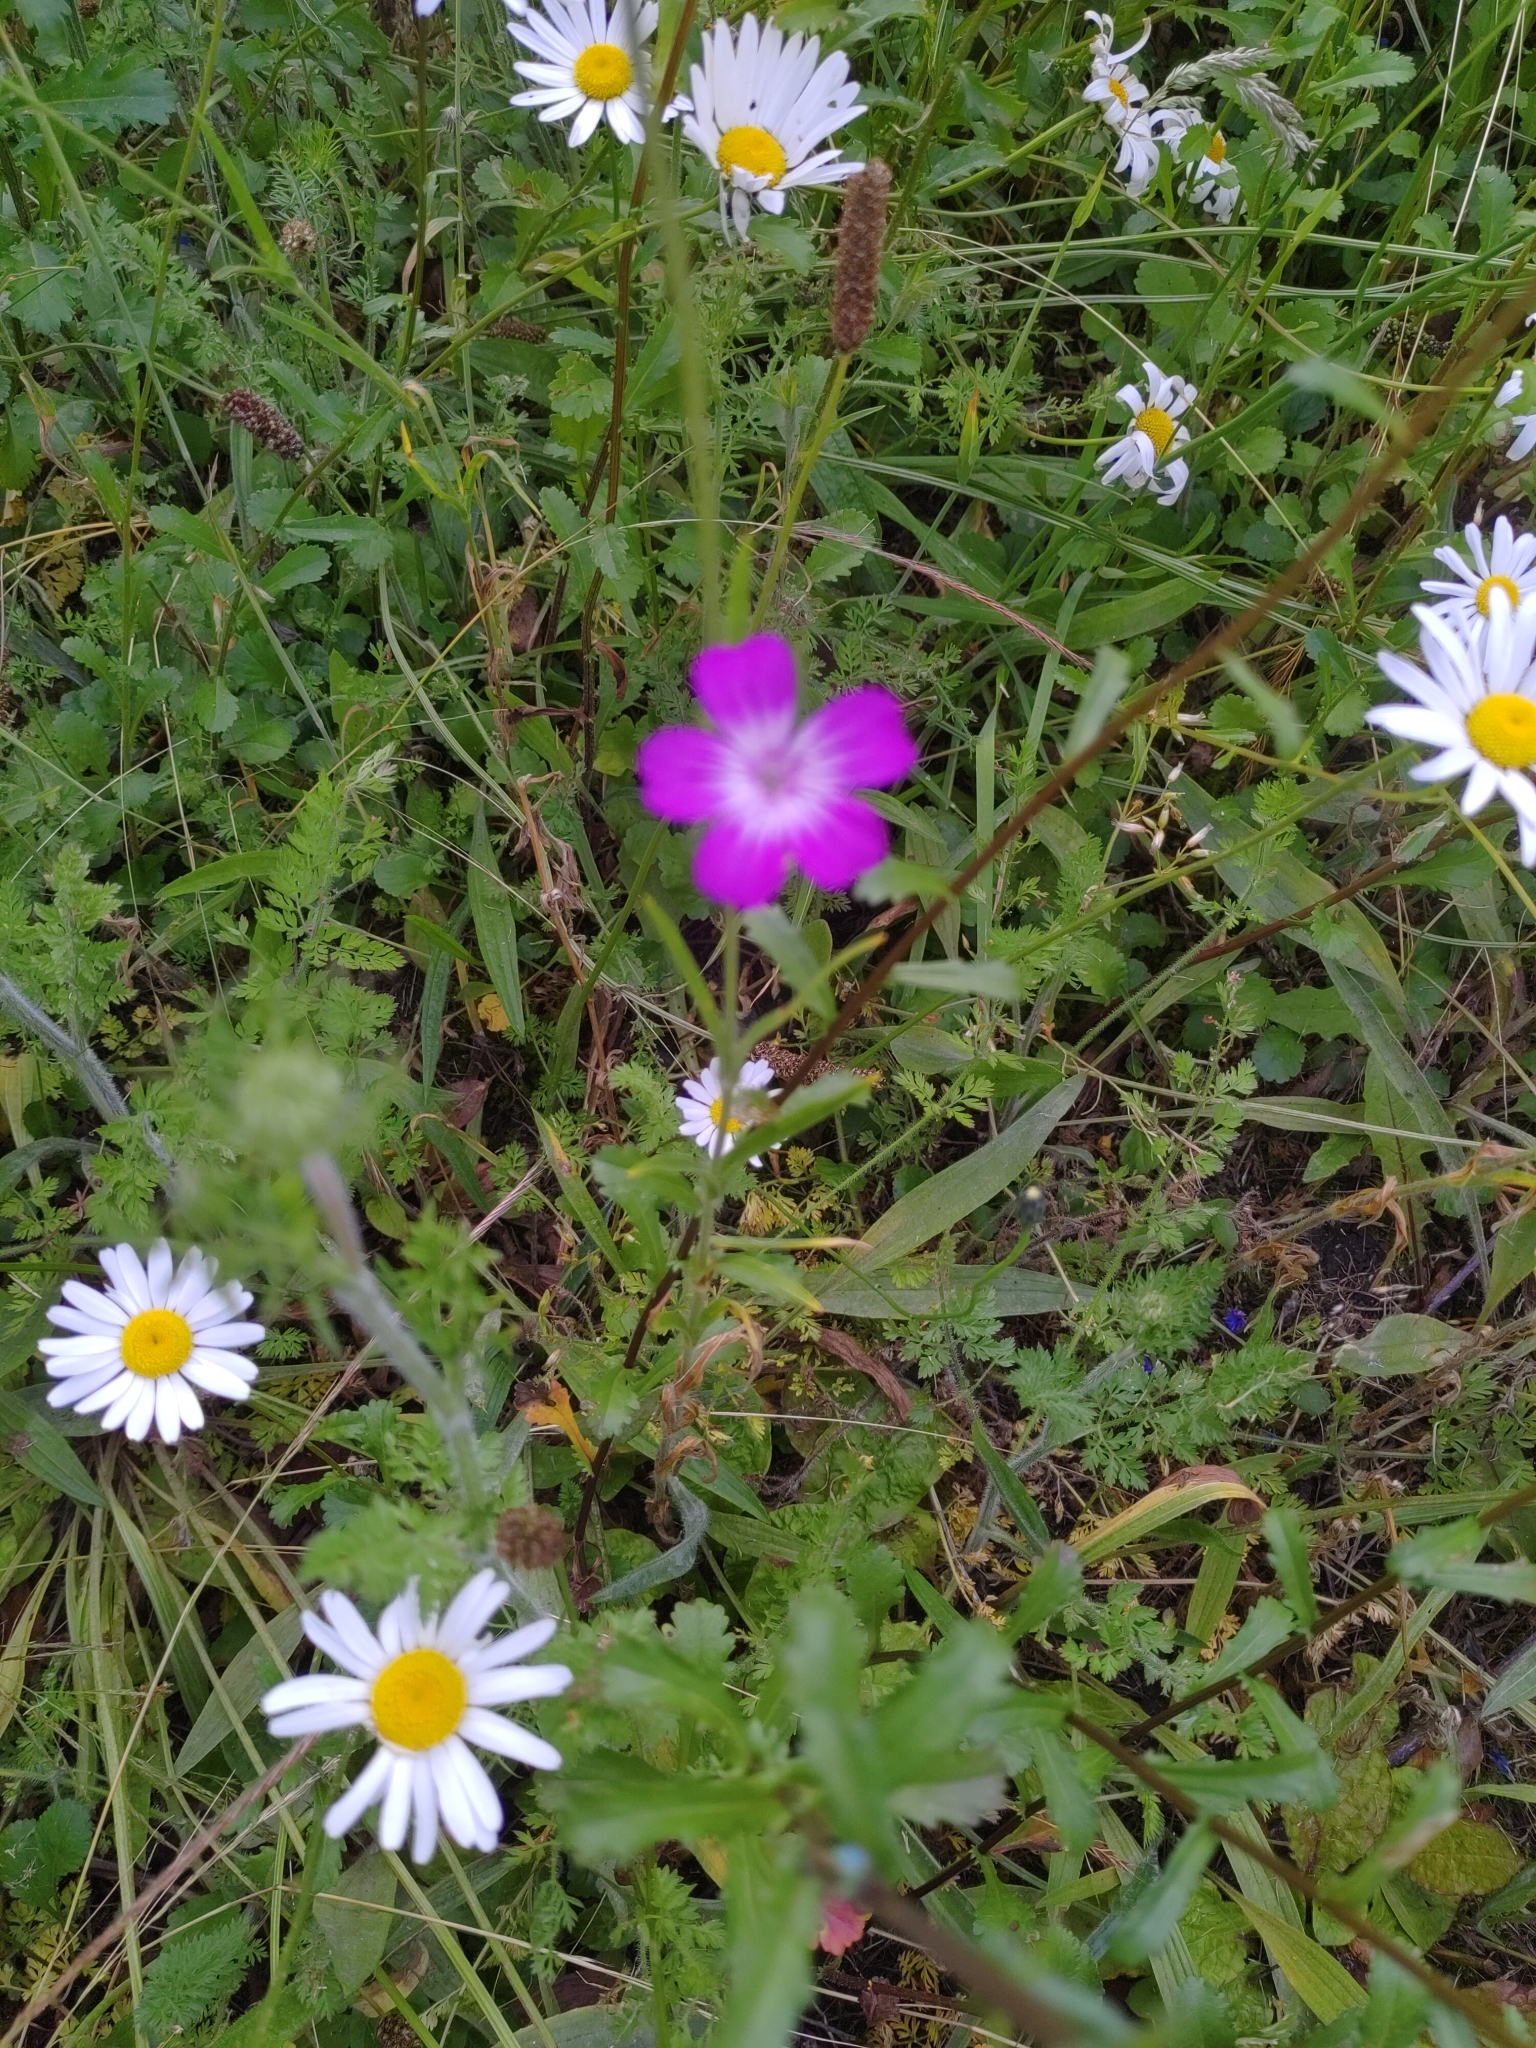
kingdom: Plantae
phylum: Tracheophyta
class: Magnoliopsida
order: Caryophyllales
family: Caryophyllaceae
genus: Agrostemma
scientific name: Agrostemma githago
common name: Common corncockle
